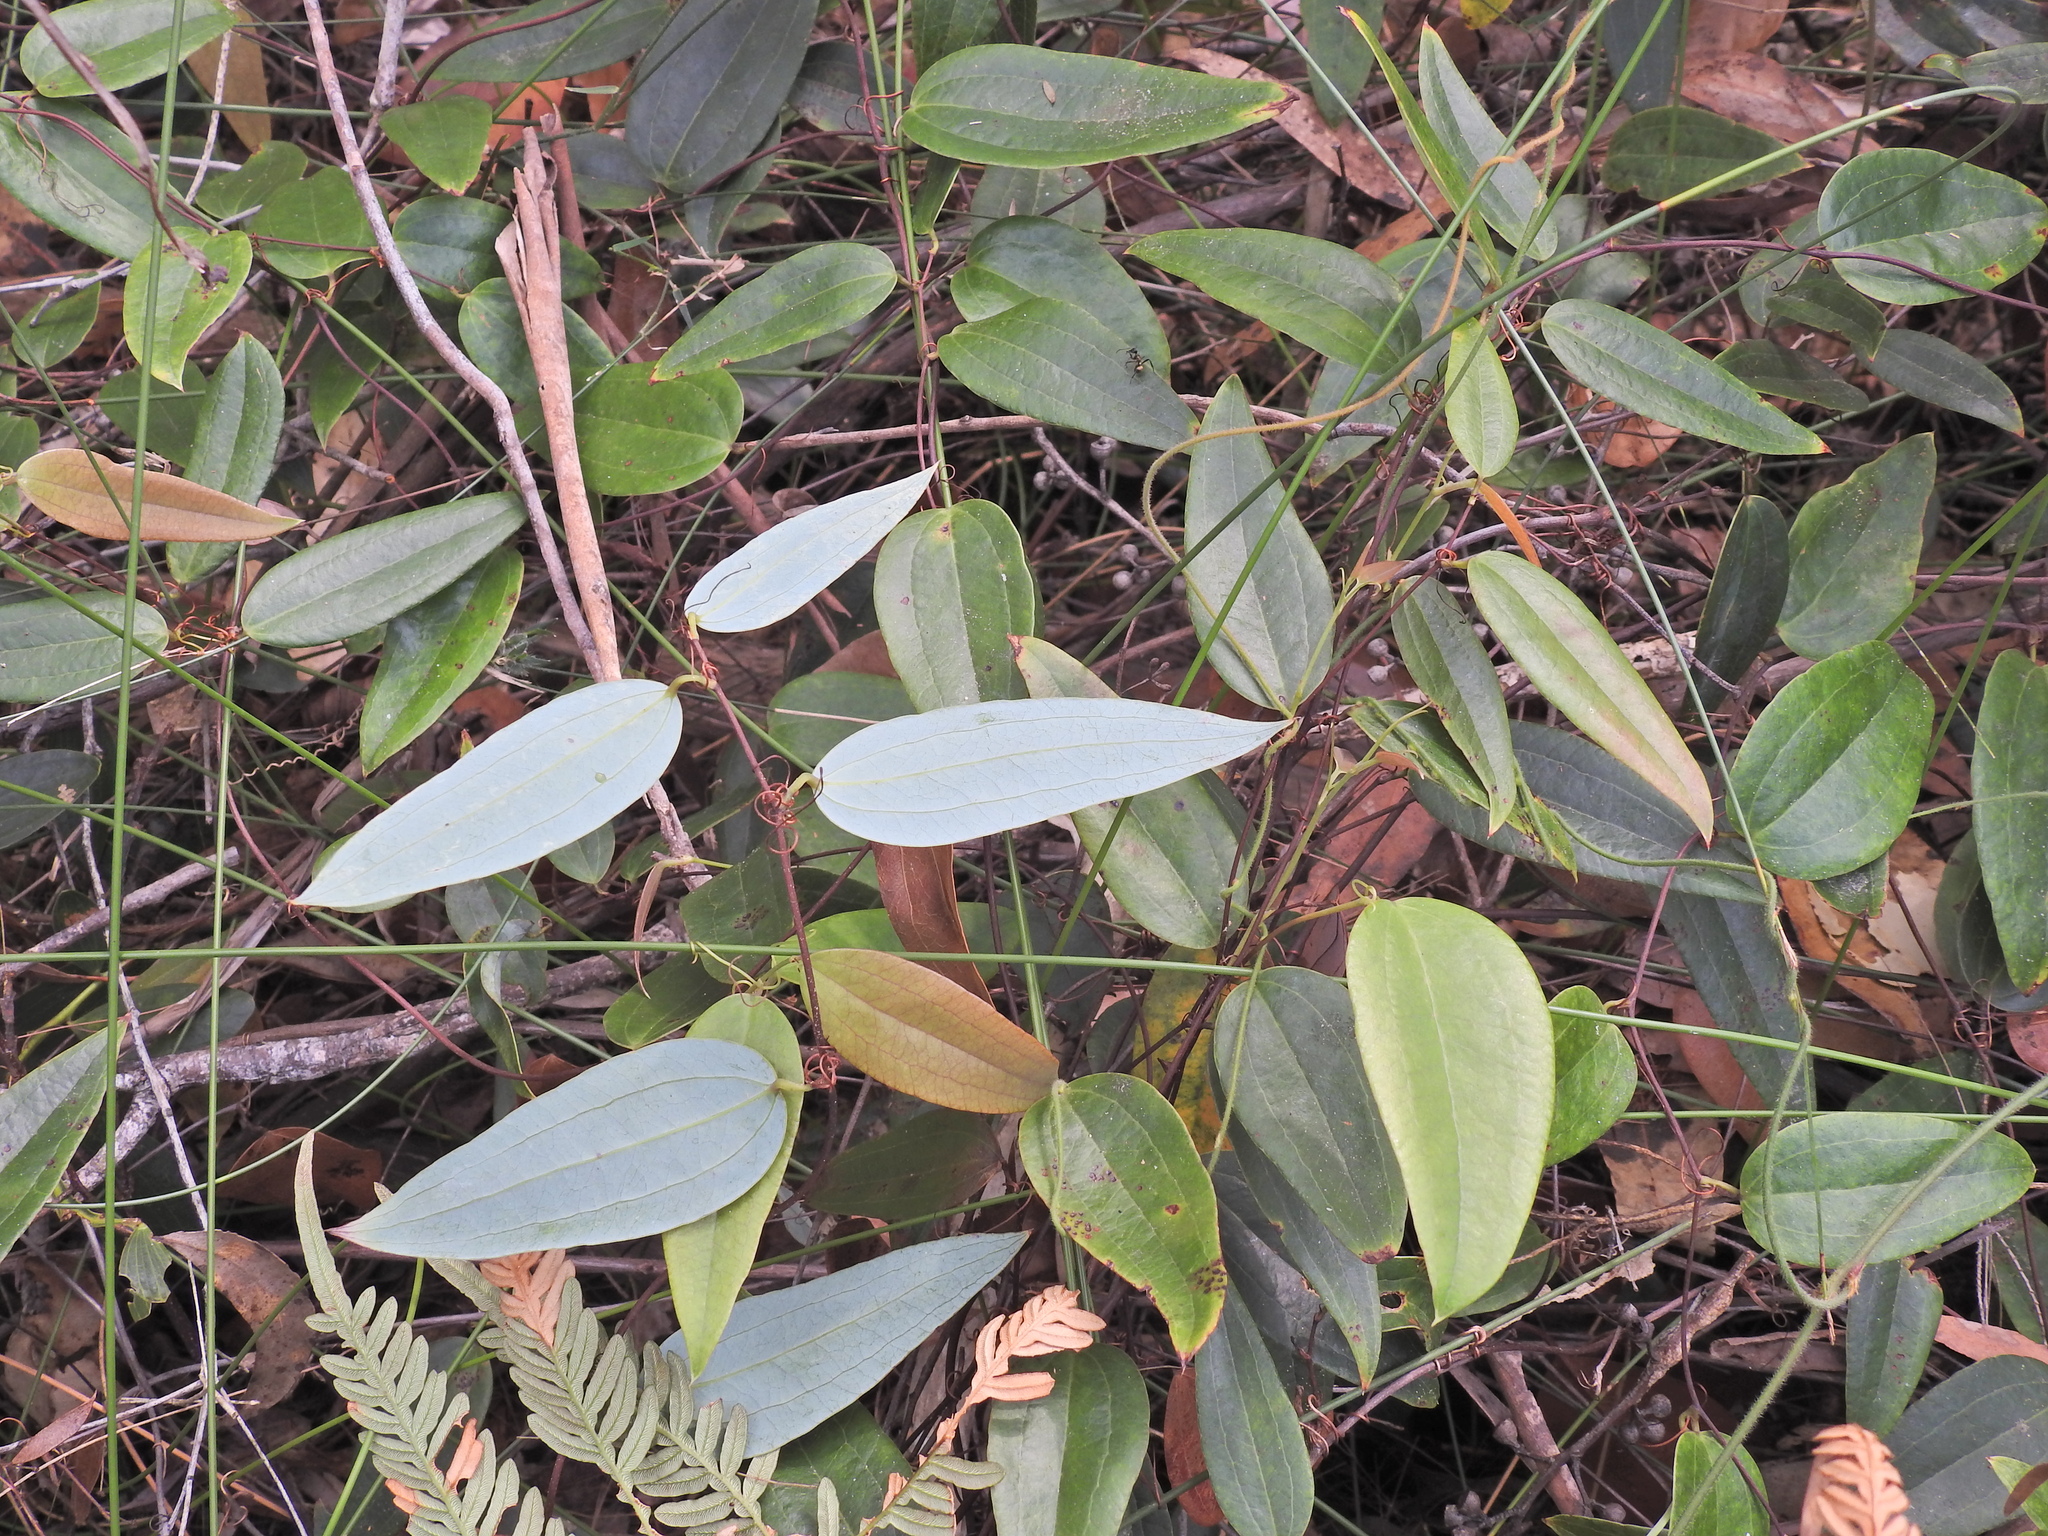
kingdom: Plantae
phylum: Tracheophyta
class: Liliopsida
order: Liliales
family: Smilacaceae
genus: Smilax
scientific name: Smilax glyciphylla
